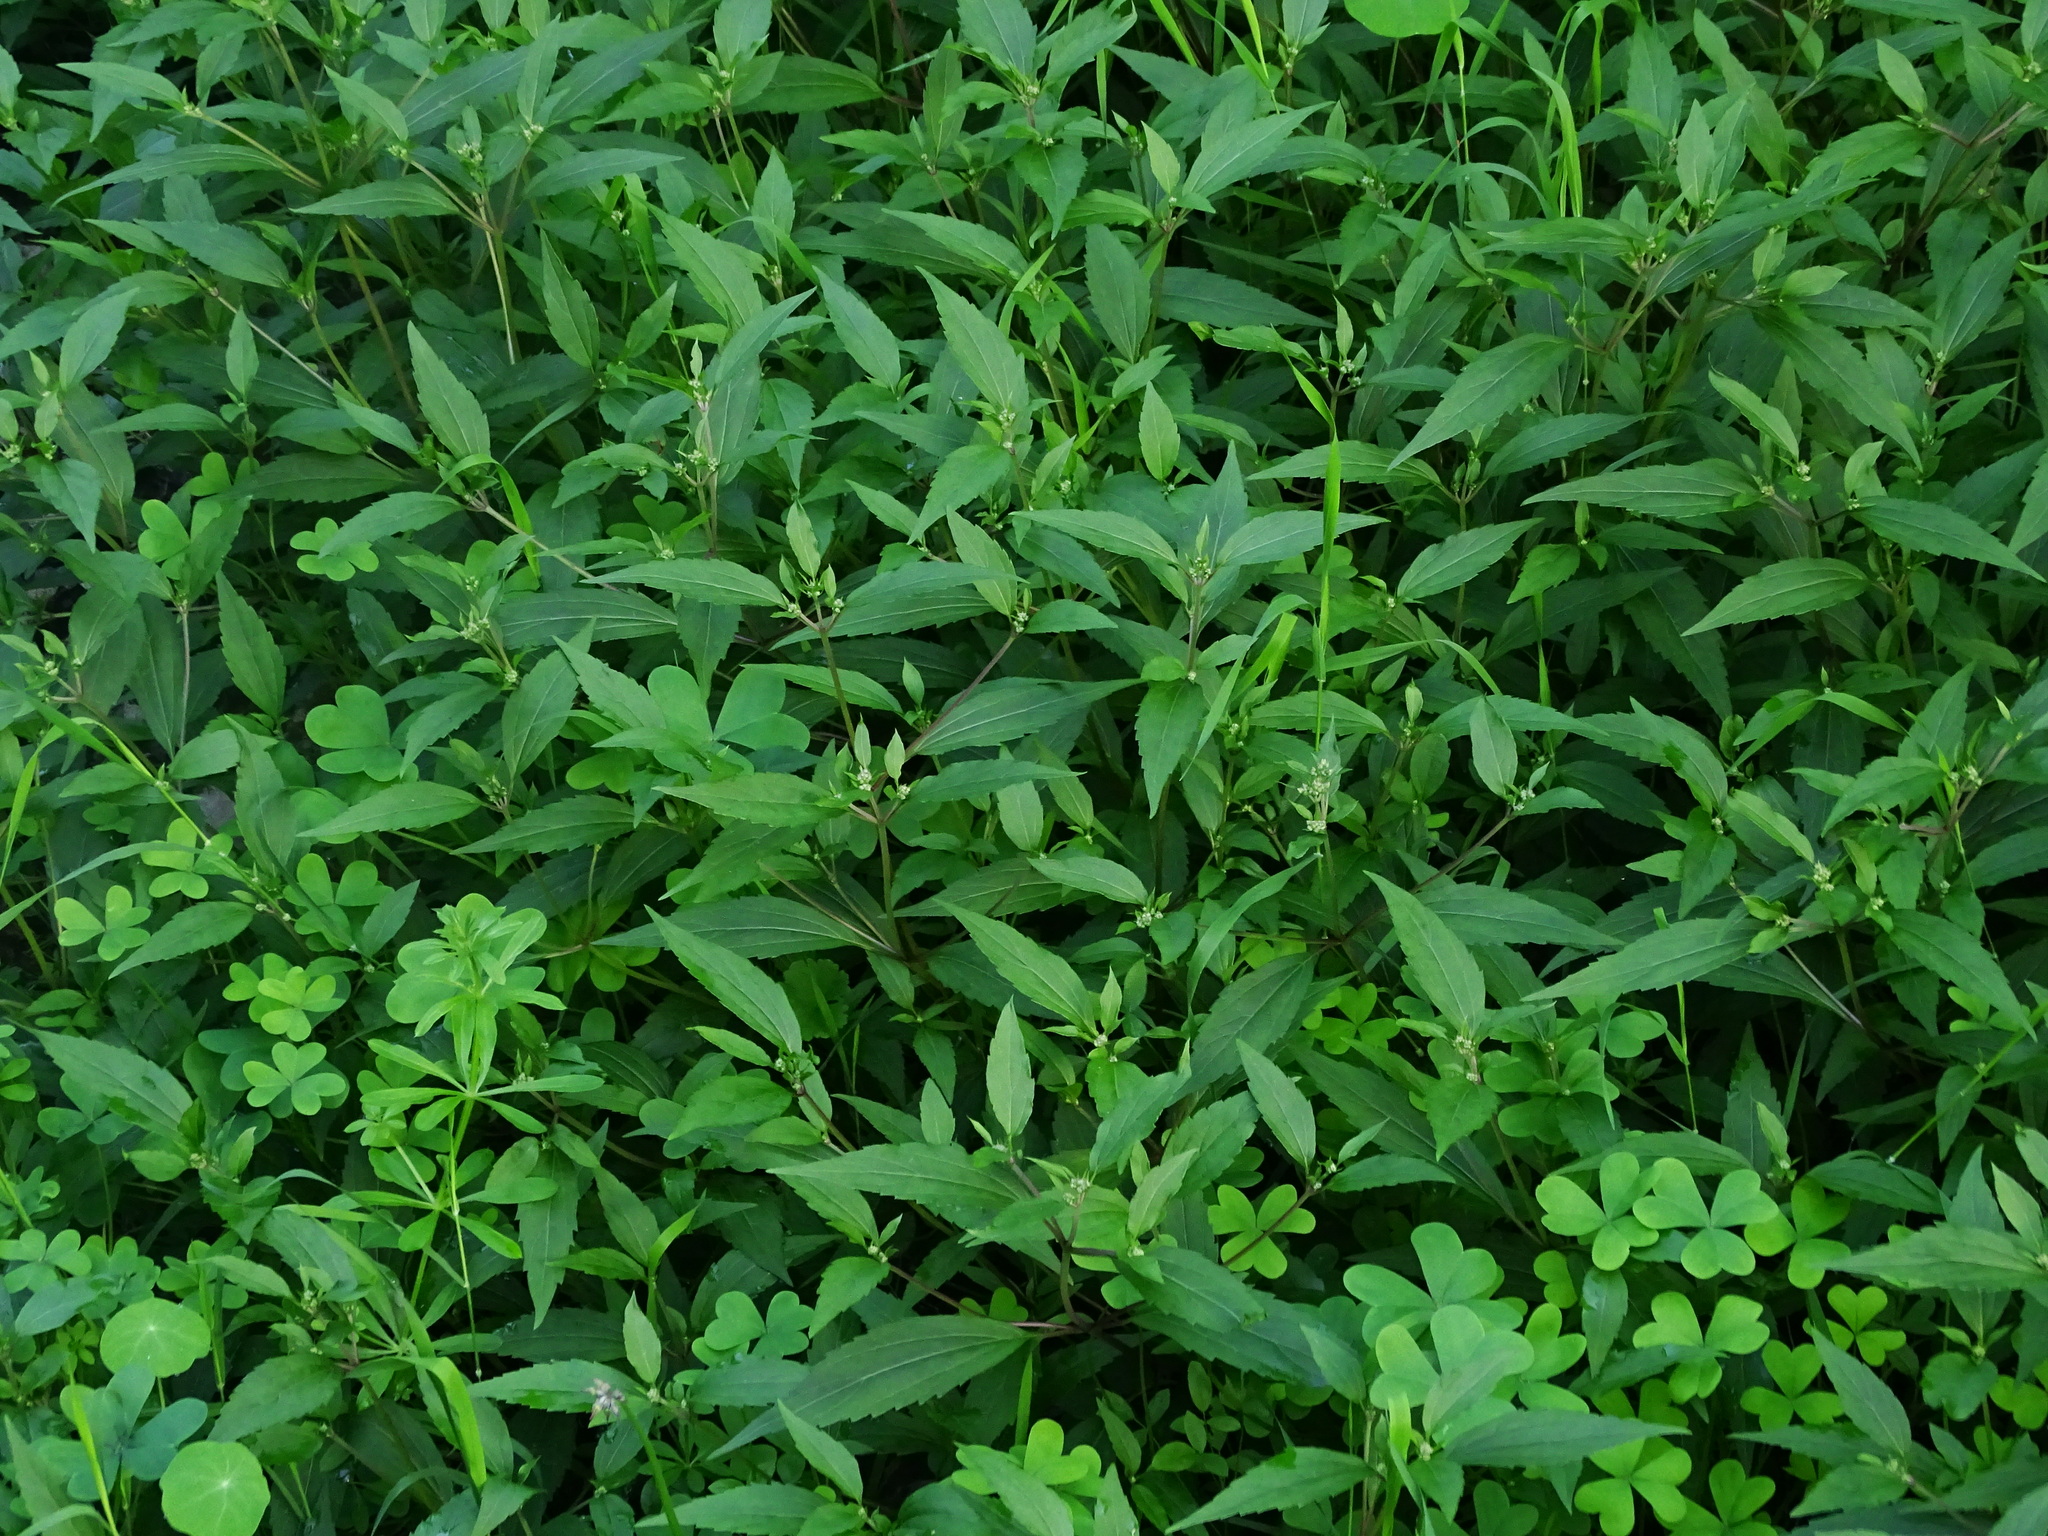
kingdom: Plantae
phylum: Tracheophyta
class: Magnoliopsida
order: Asterales
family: Asteraceae
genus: Ageratina
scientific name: Ageratina riparia
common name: Creeping croftonweed
